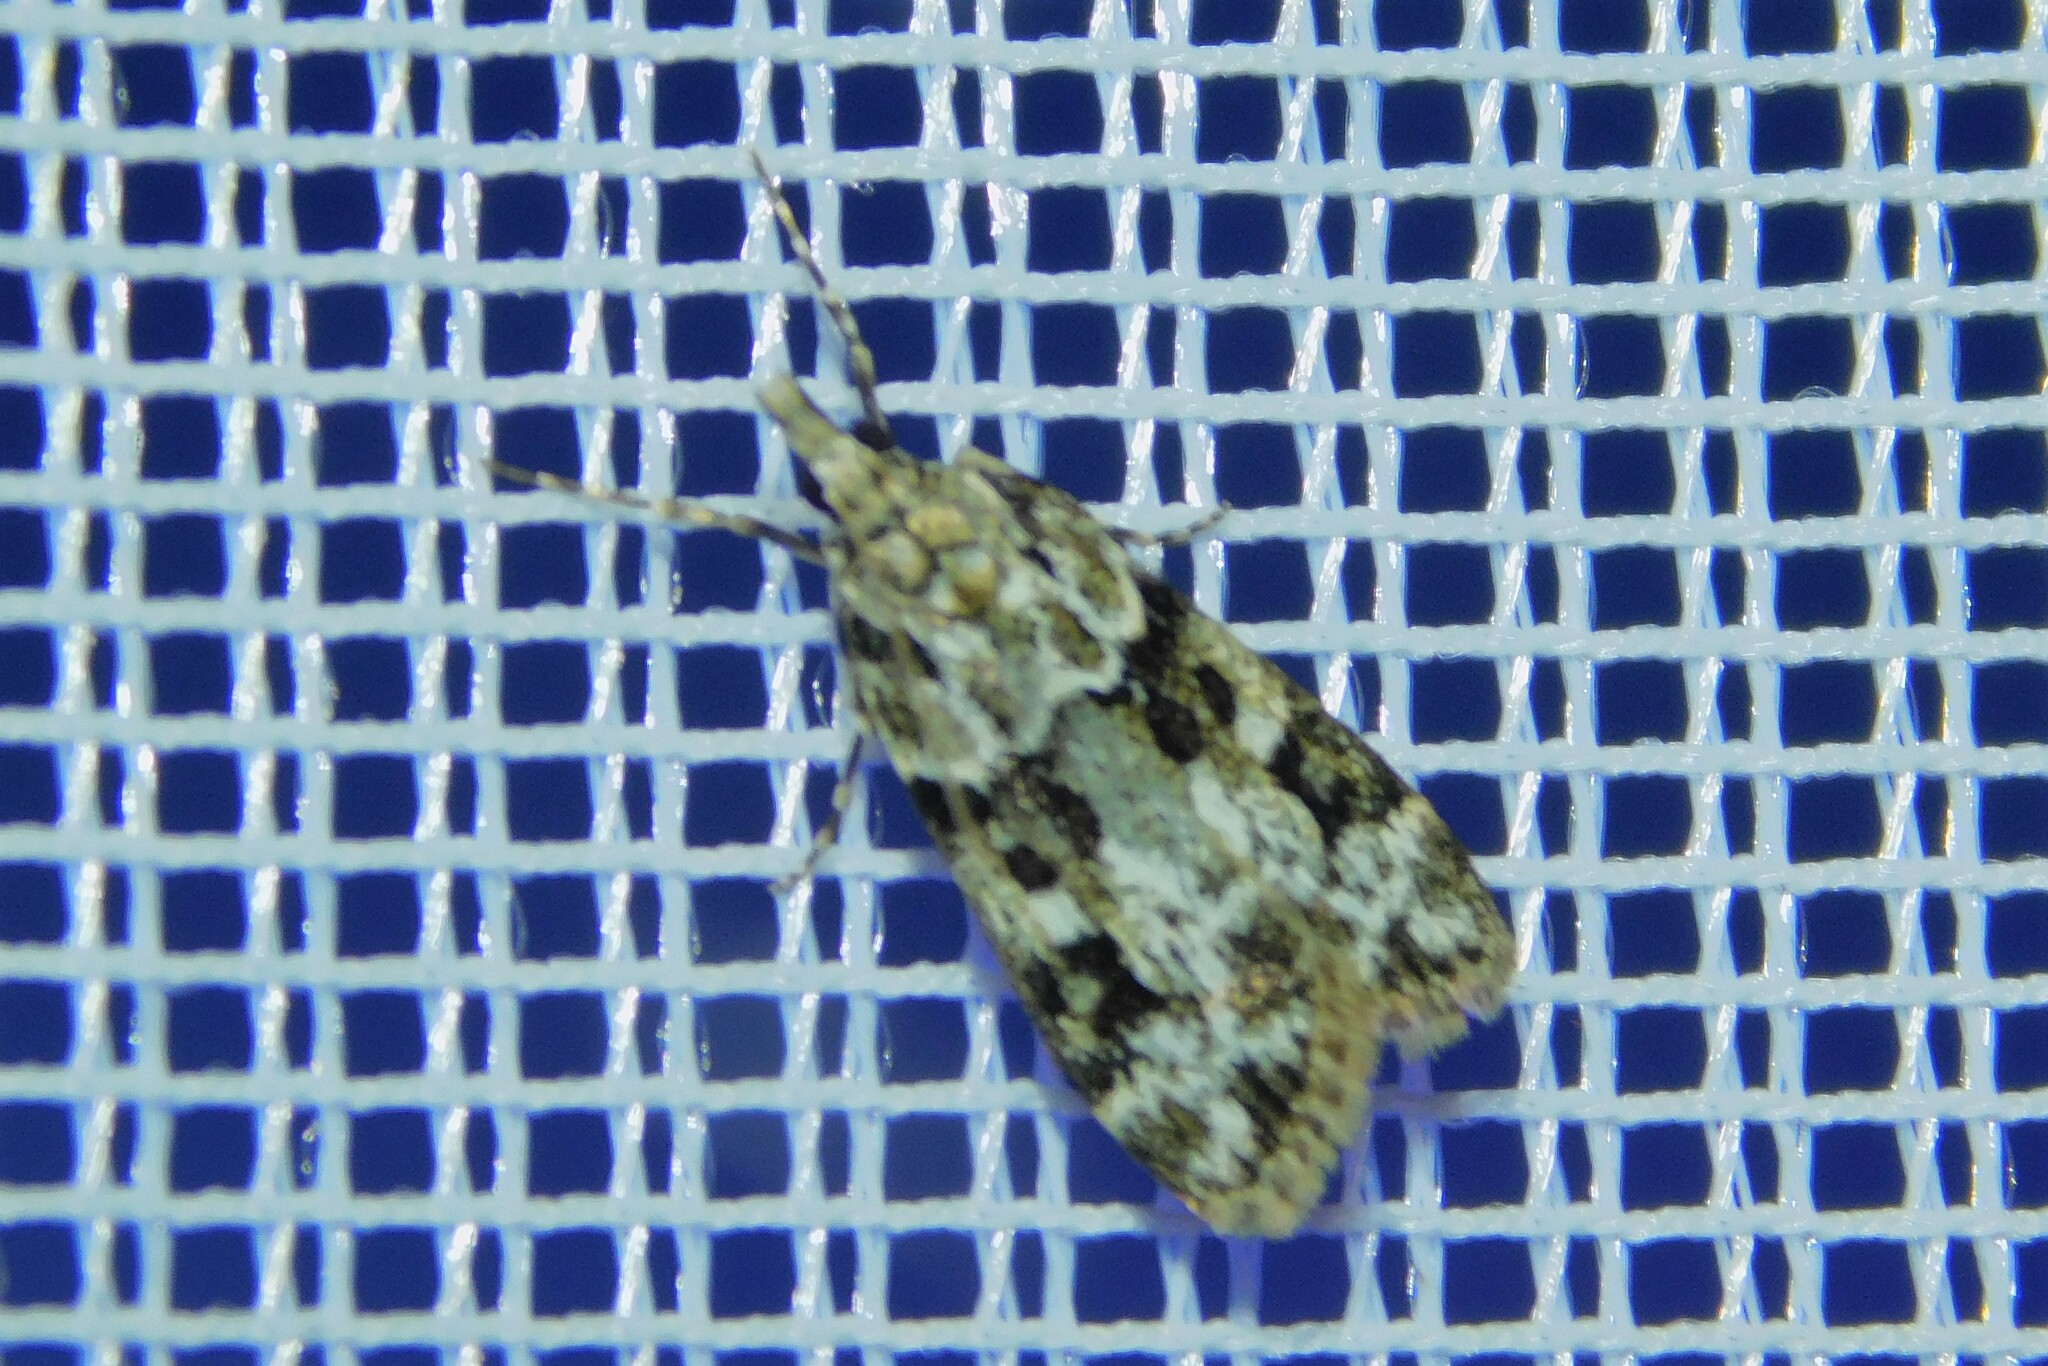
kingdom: Animalia
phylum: Arthropoda
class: Insecta
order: Lepidoptera
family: Crambidae
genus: Eudonia
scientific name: Eudonia delunella
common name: Pied grey
